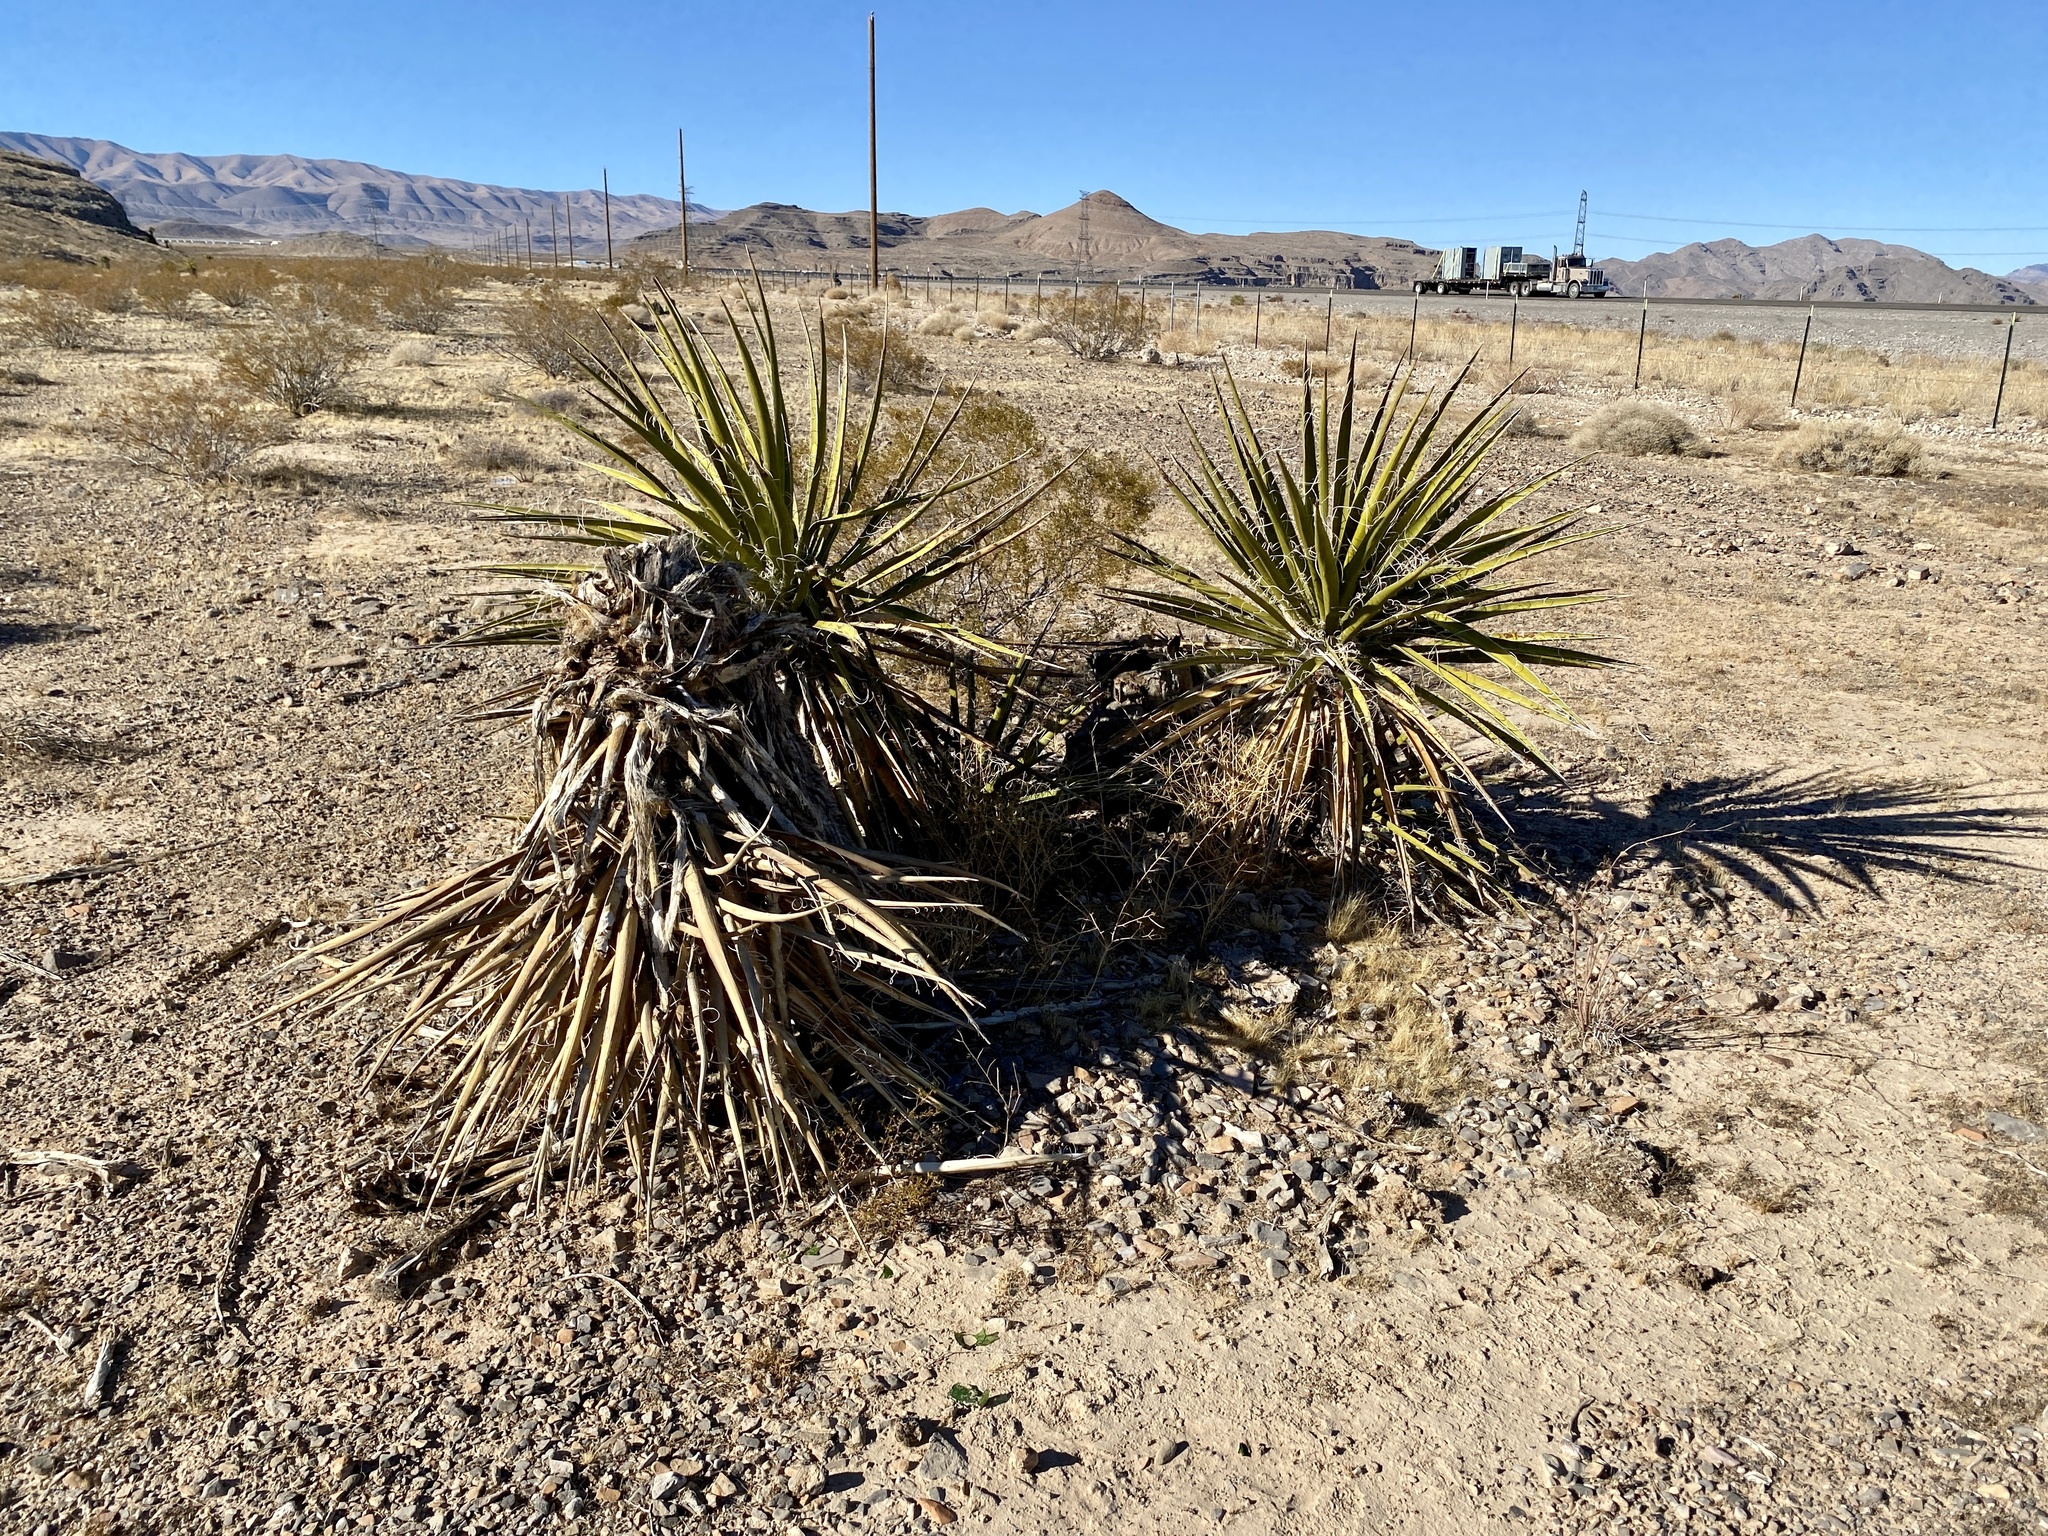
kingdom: Plantae
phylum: Tracheophyta
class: Liliopsida
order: Asparagales
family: Asparagaceae
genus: Yucca
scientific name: Yucca schidigera
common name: Mojave yucca
